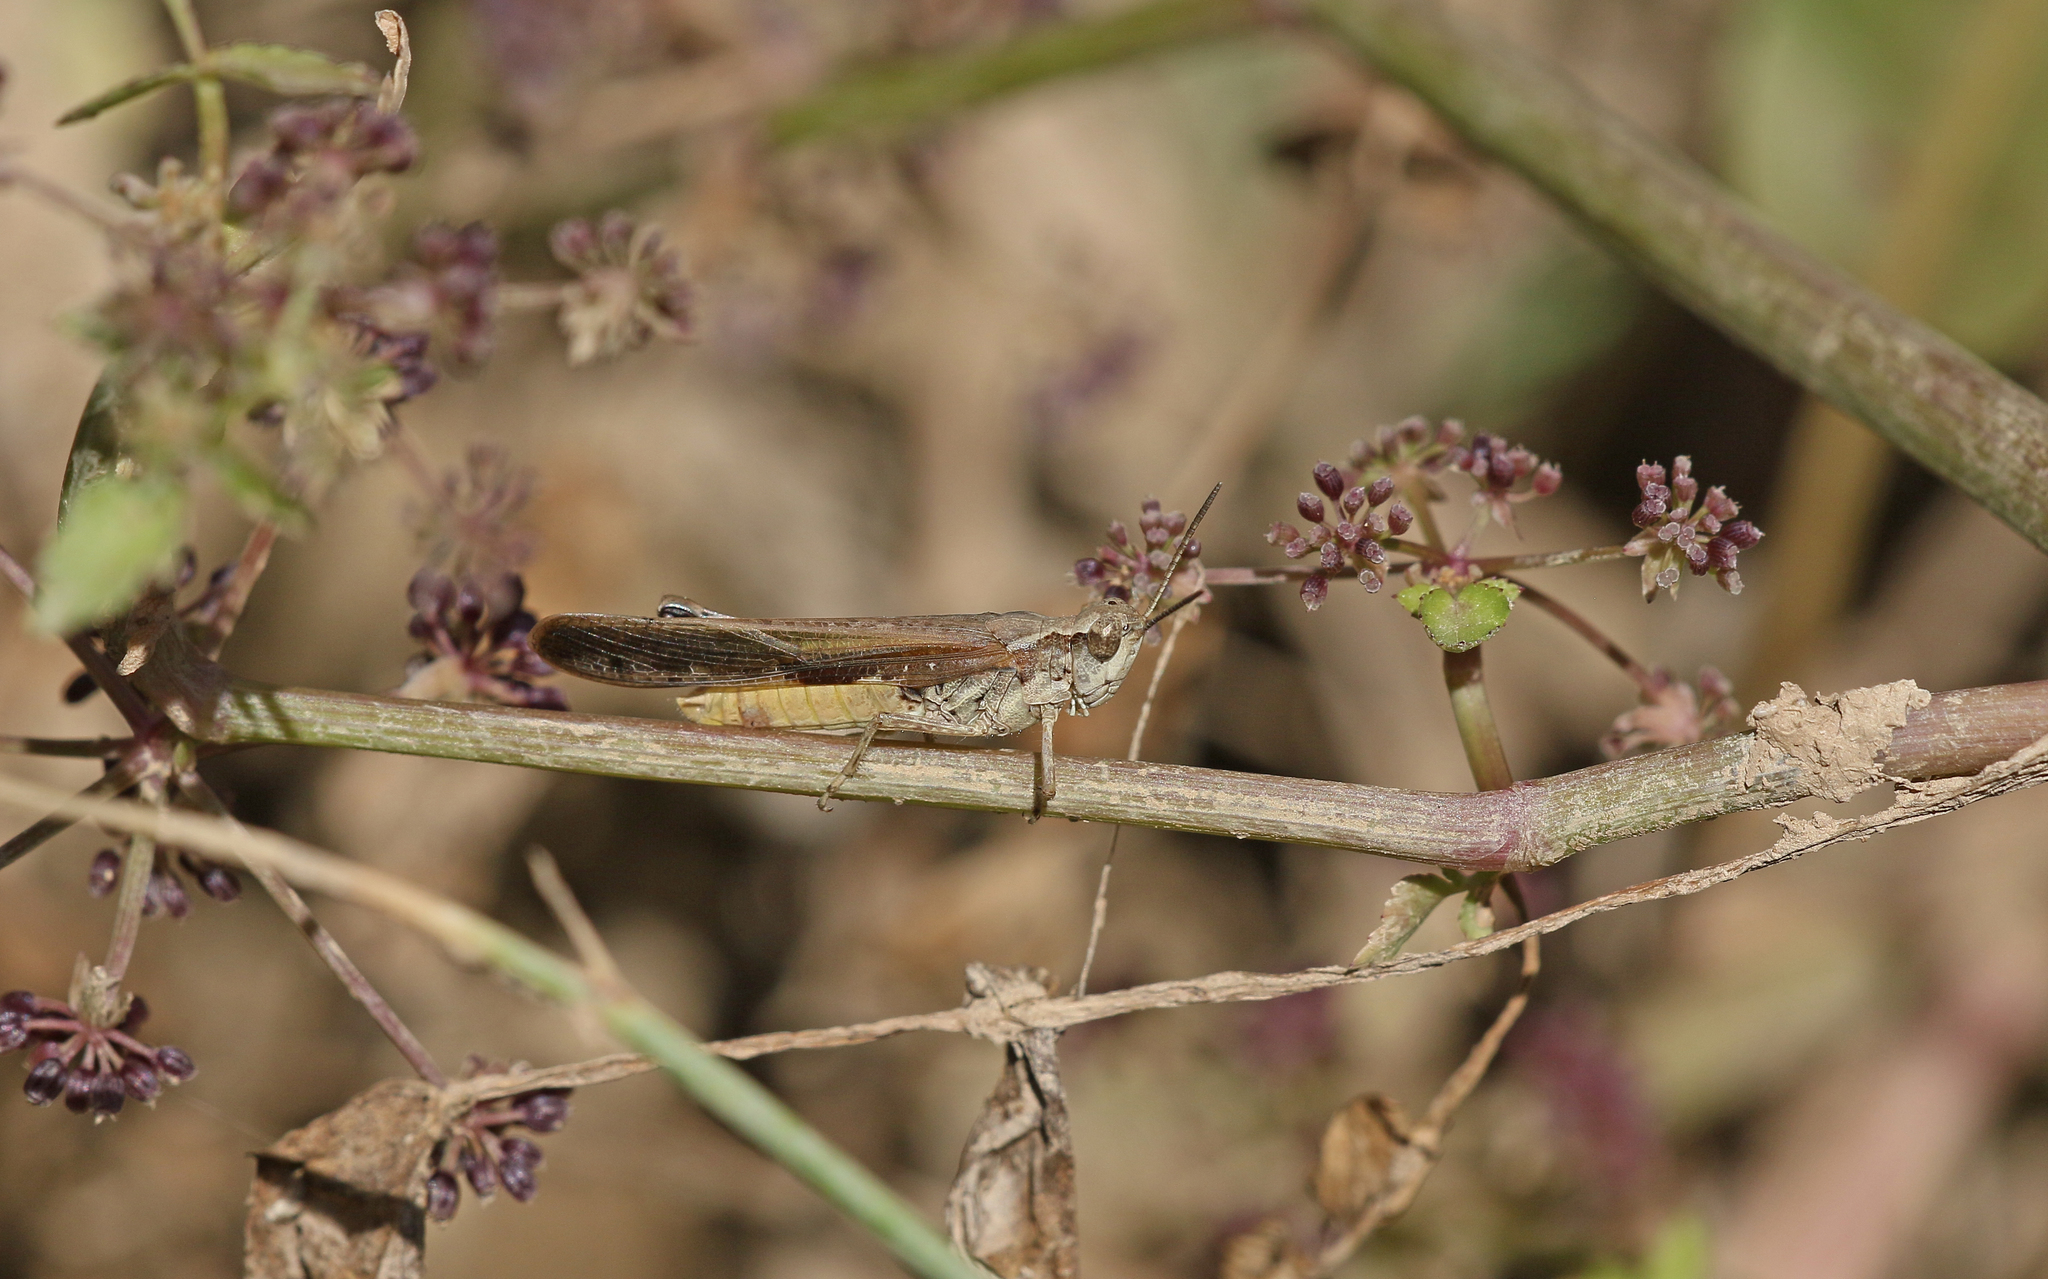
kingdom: Animalia
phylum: Arthropoda
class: Insecta
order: Orthoptera
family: Acrididae
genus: Aiolopus
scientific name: Aiolopus puissanti
